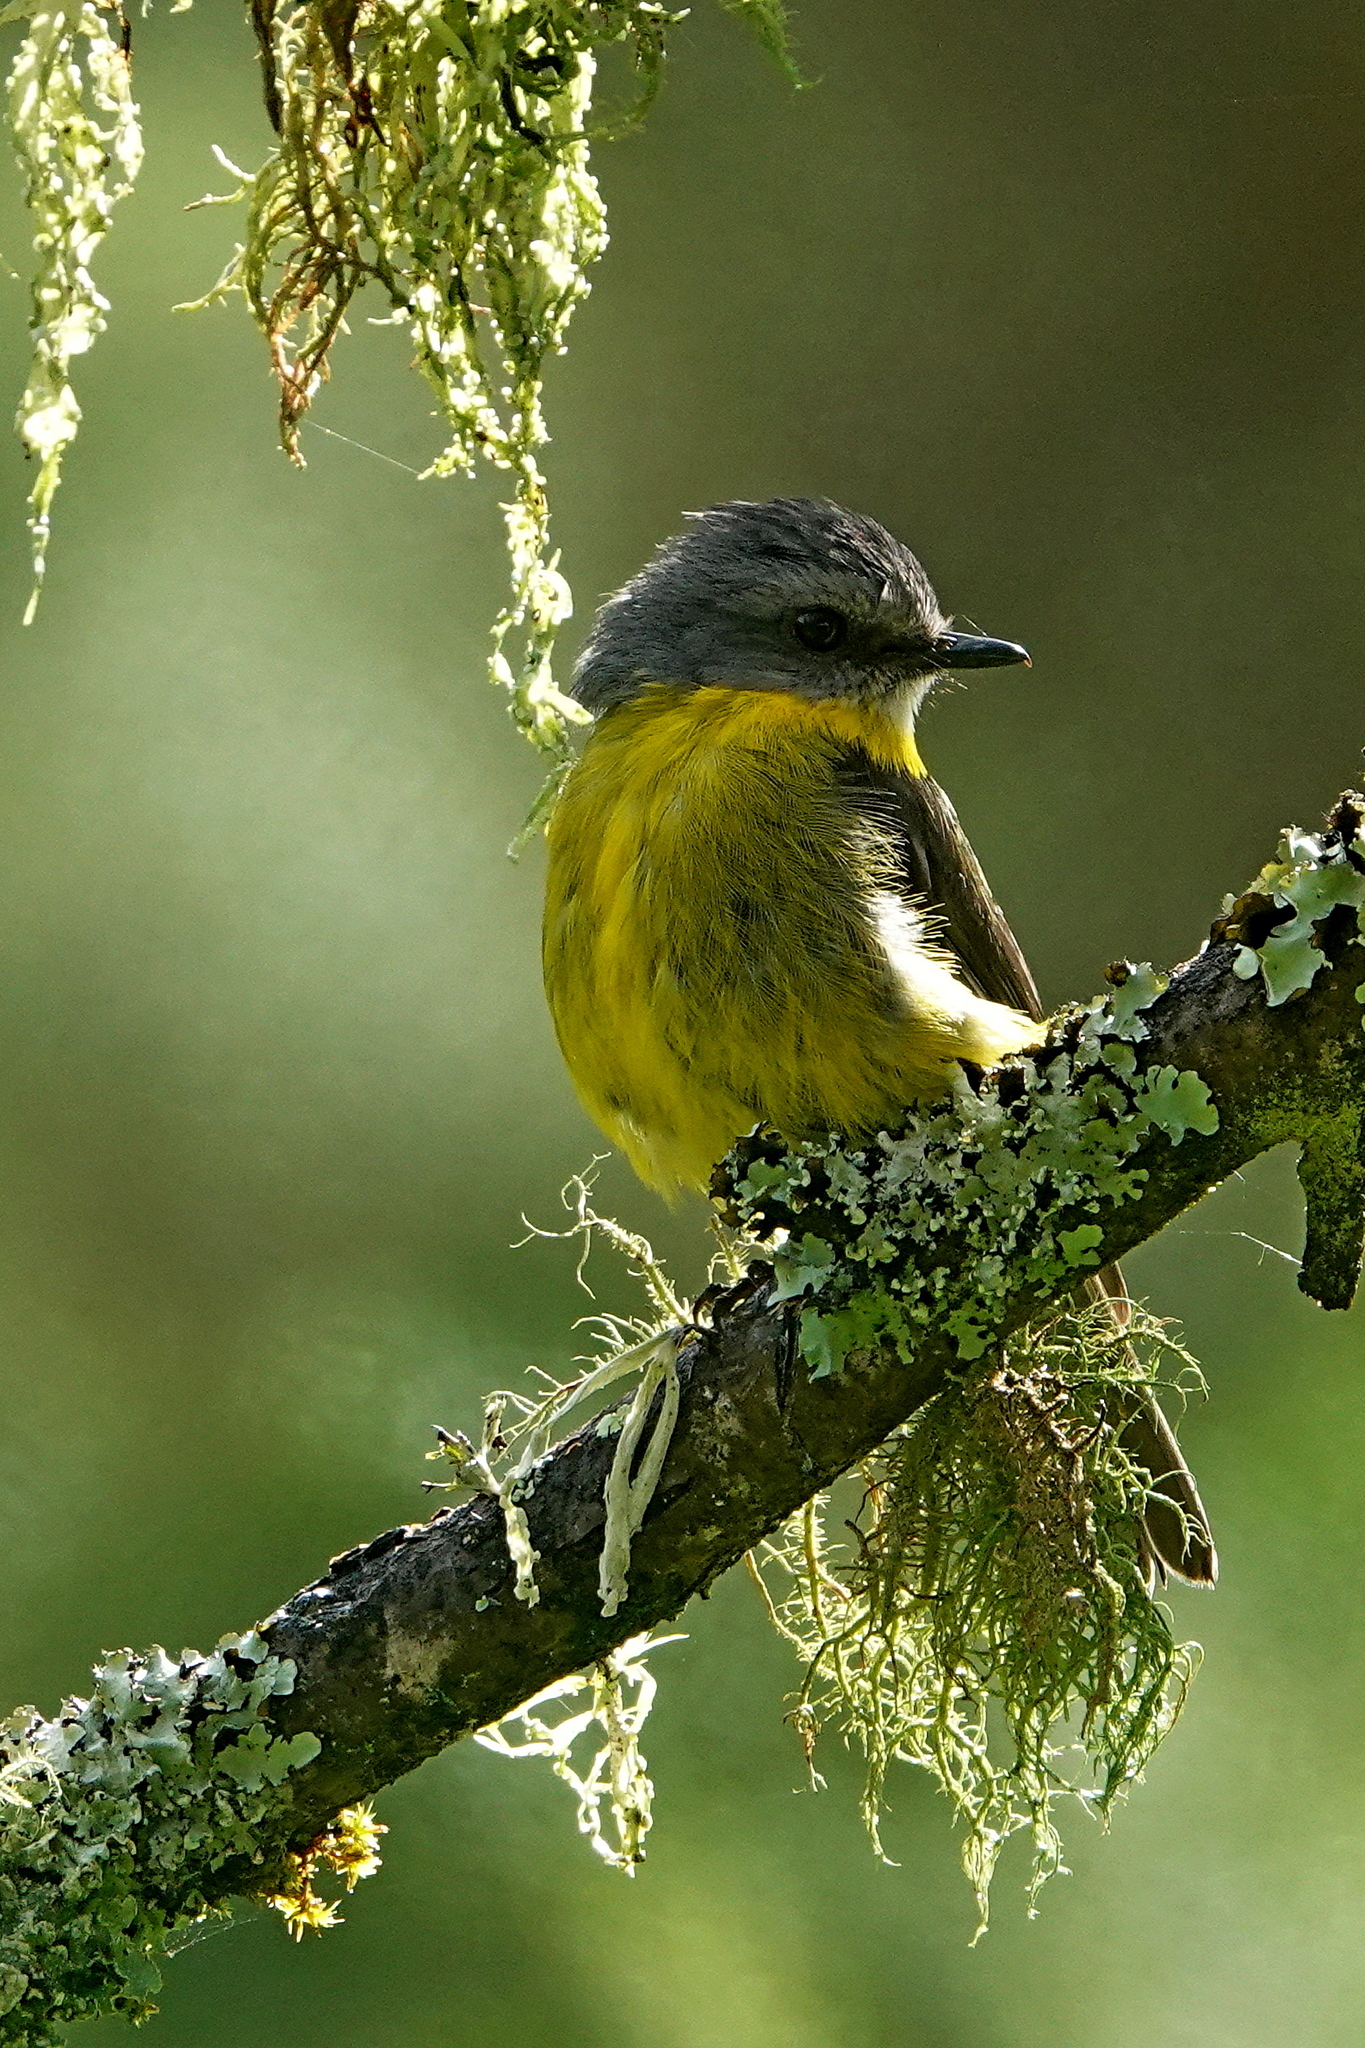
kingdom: Animalia
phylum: Chordata
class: Aves
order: Passeriformes
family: Petroicidae
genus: Eopsaltria
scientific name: Eopsaltria australis
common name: Eastern yellow robin
